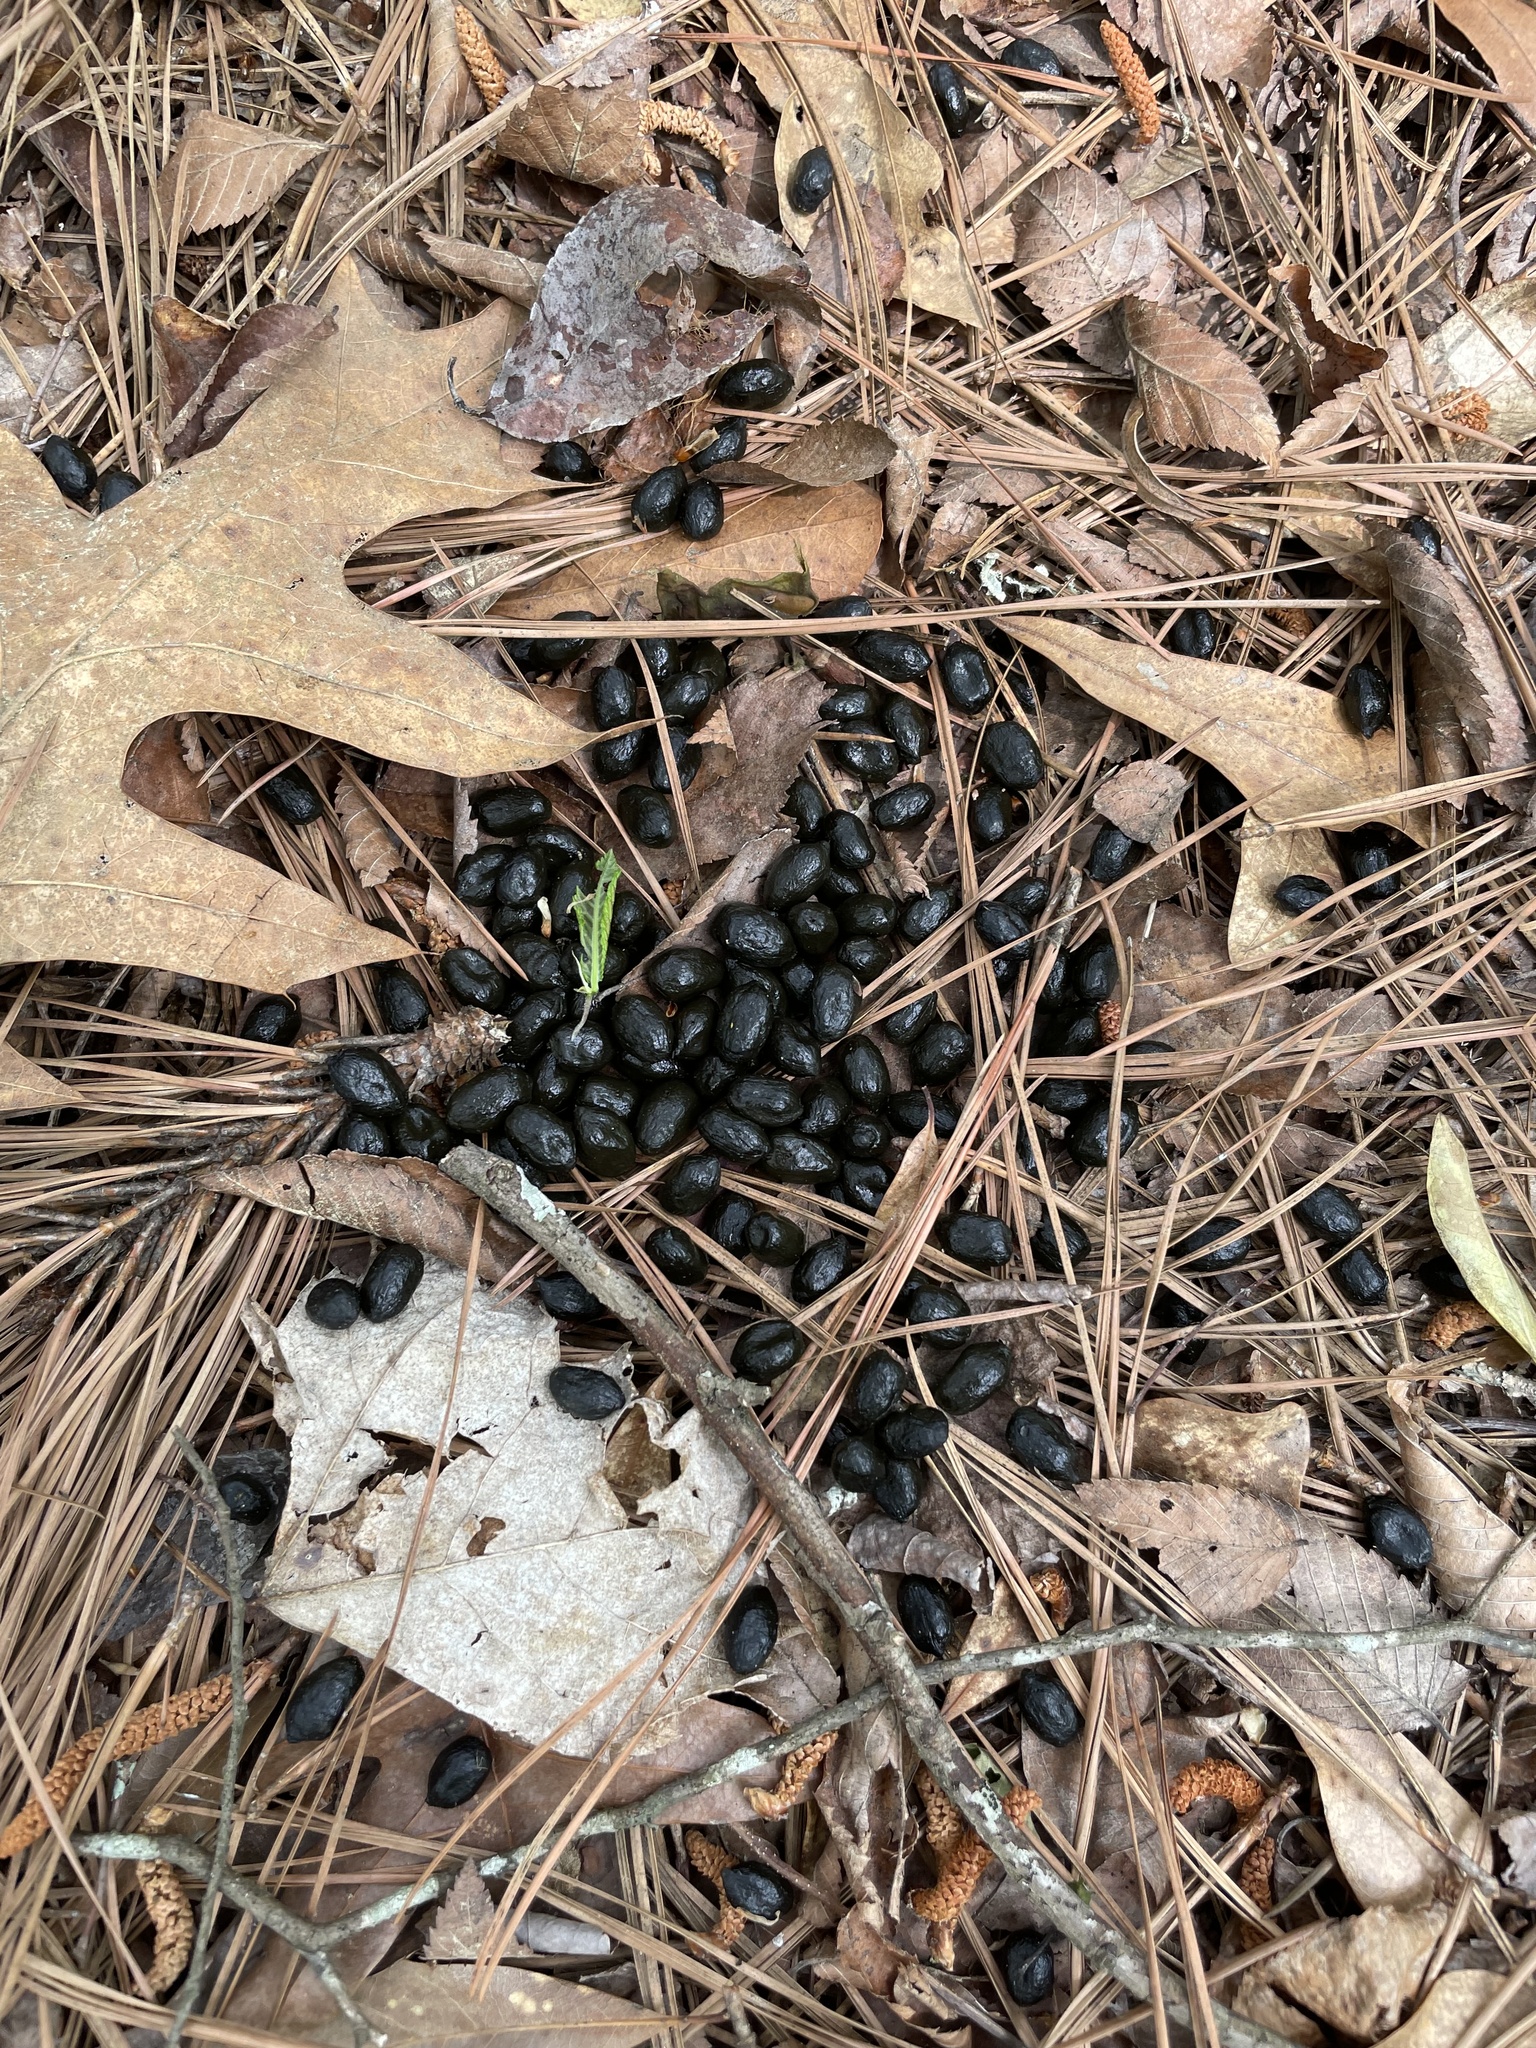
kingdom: Animalia
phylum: Chordata
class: Mammalia
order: Artiodactyla
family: Cervidae
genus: Odocoileus
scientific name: Odocoileus virginianus
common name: White-tailed deer
